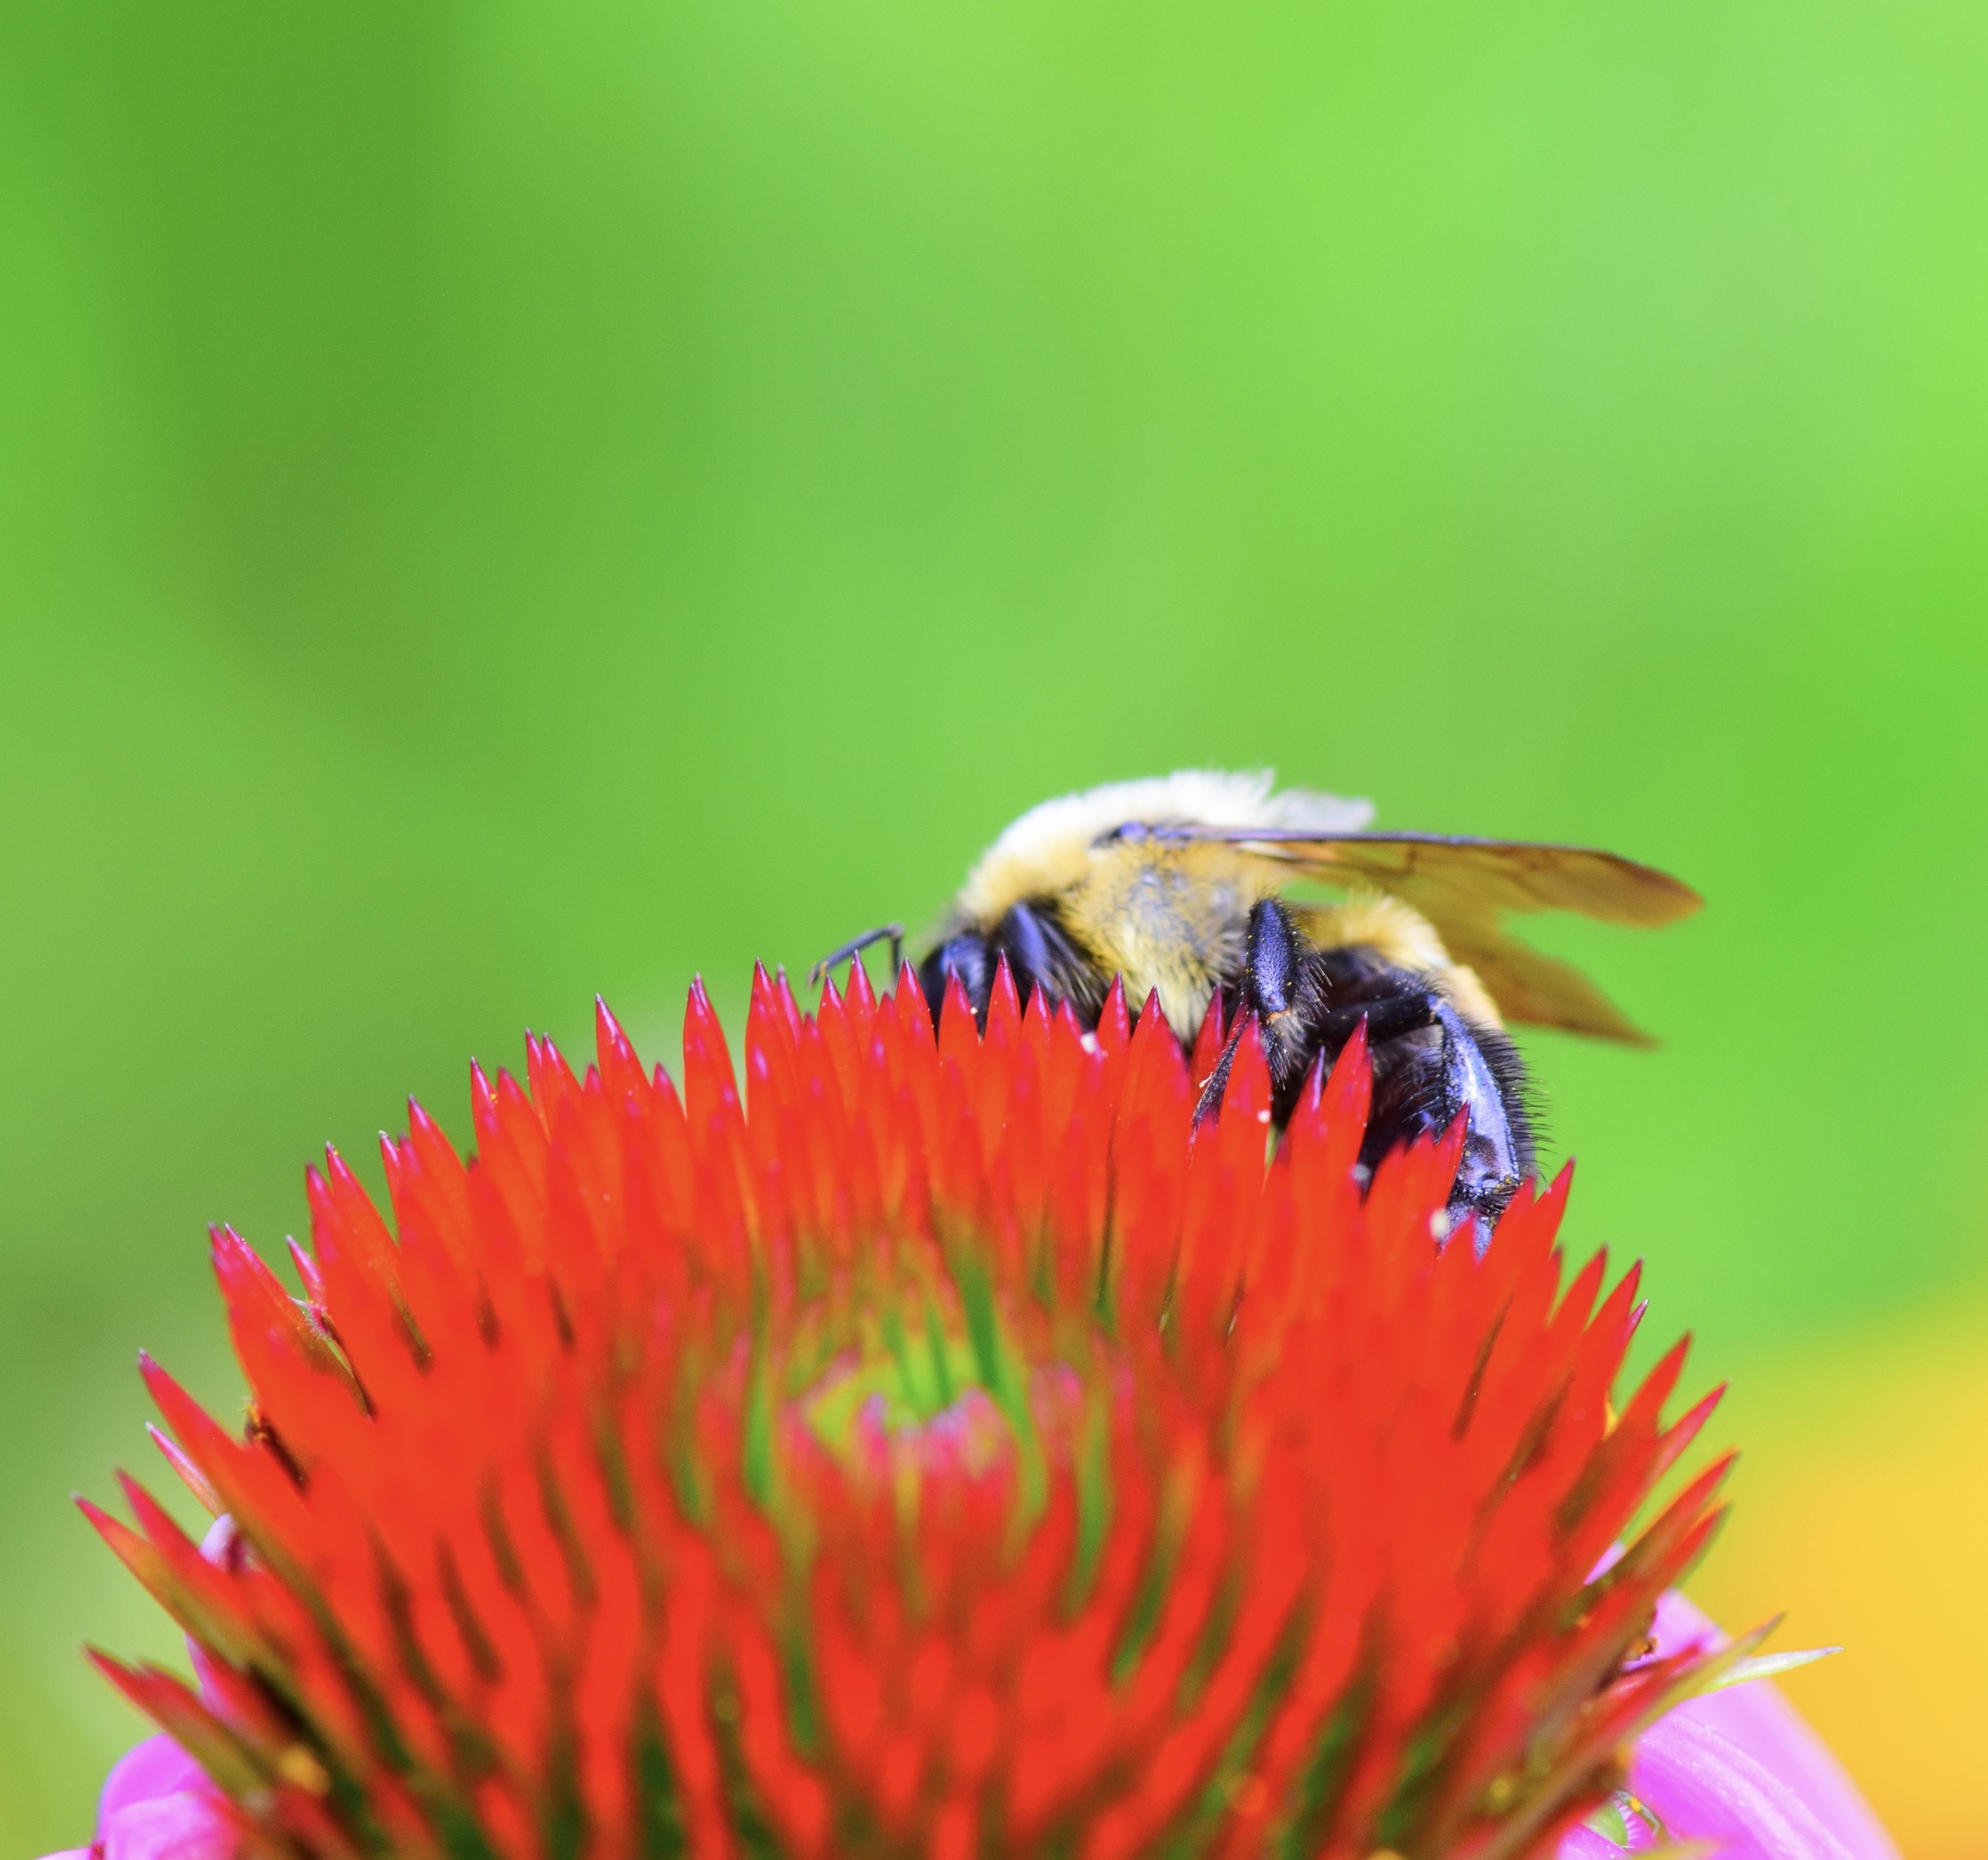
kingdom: Animalia
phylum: Arthropoda
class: Insecta
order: Hymenoptera
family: Apidae
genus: Bombus
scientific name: Bombus griseocollis
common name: Brown-belted bumble bee
